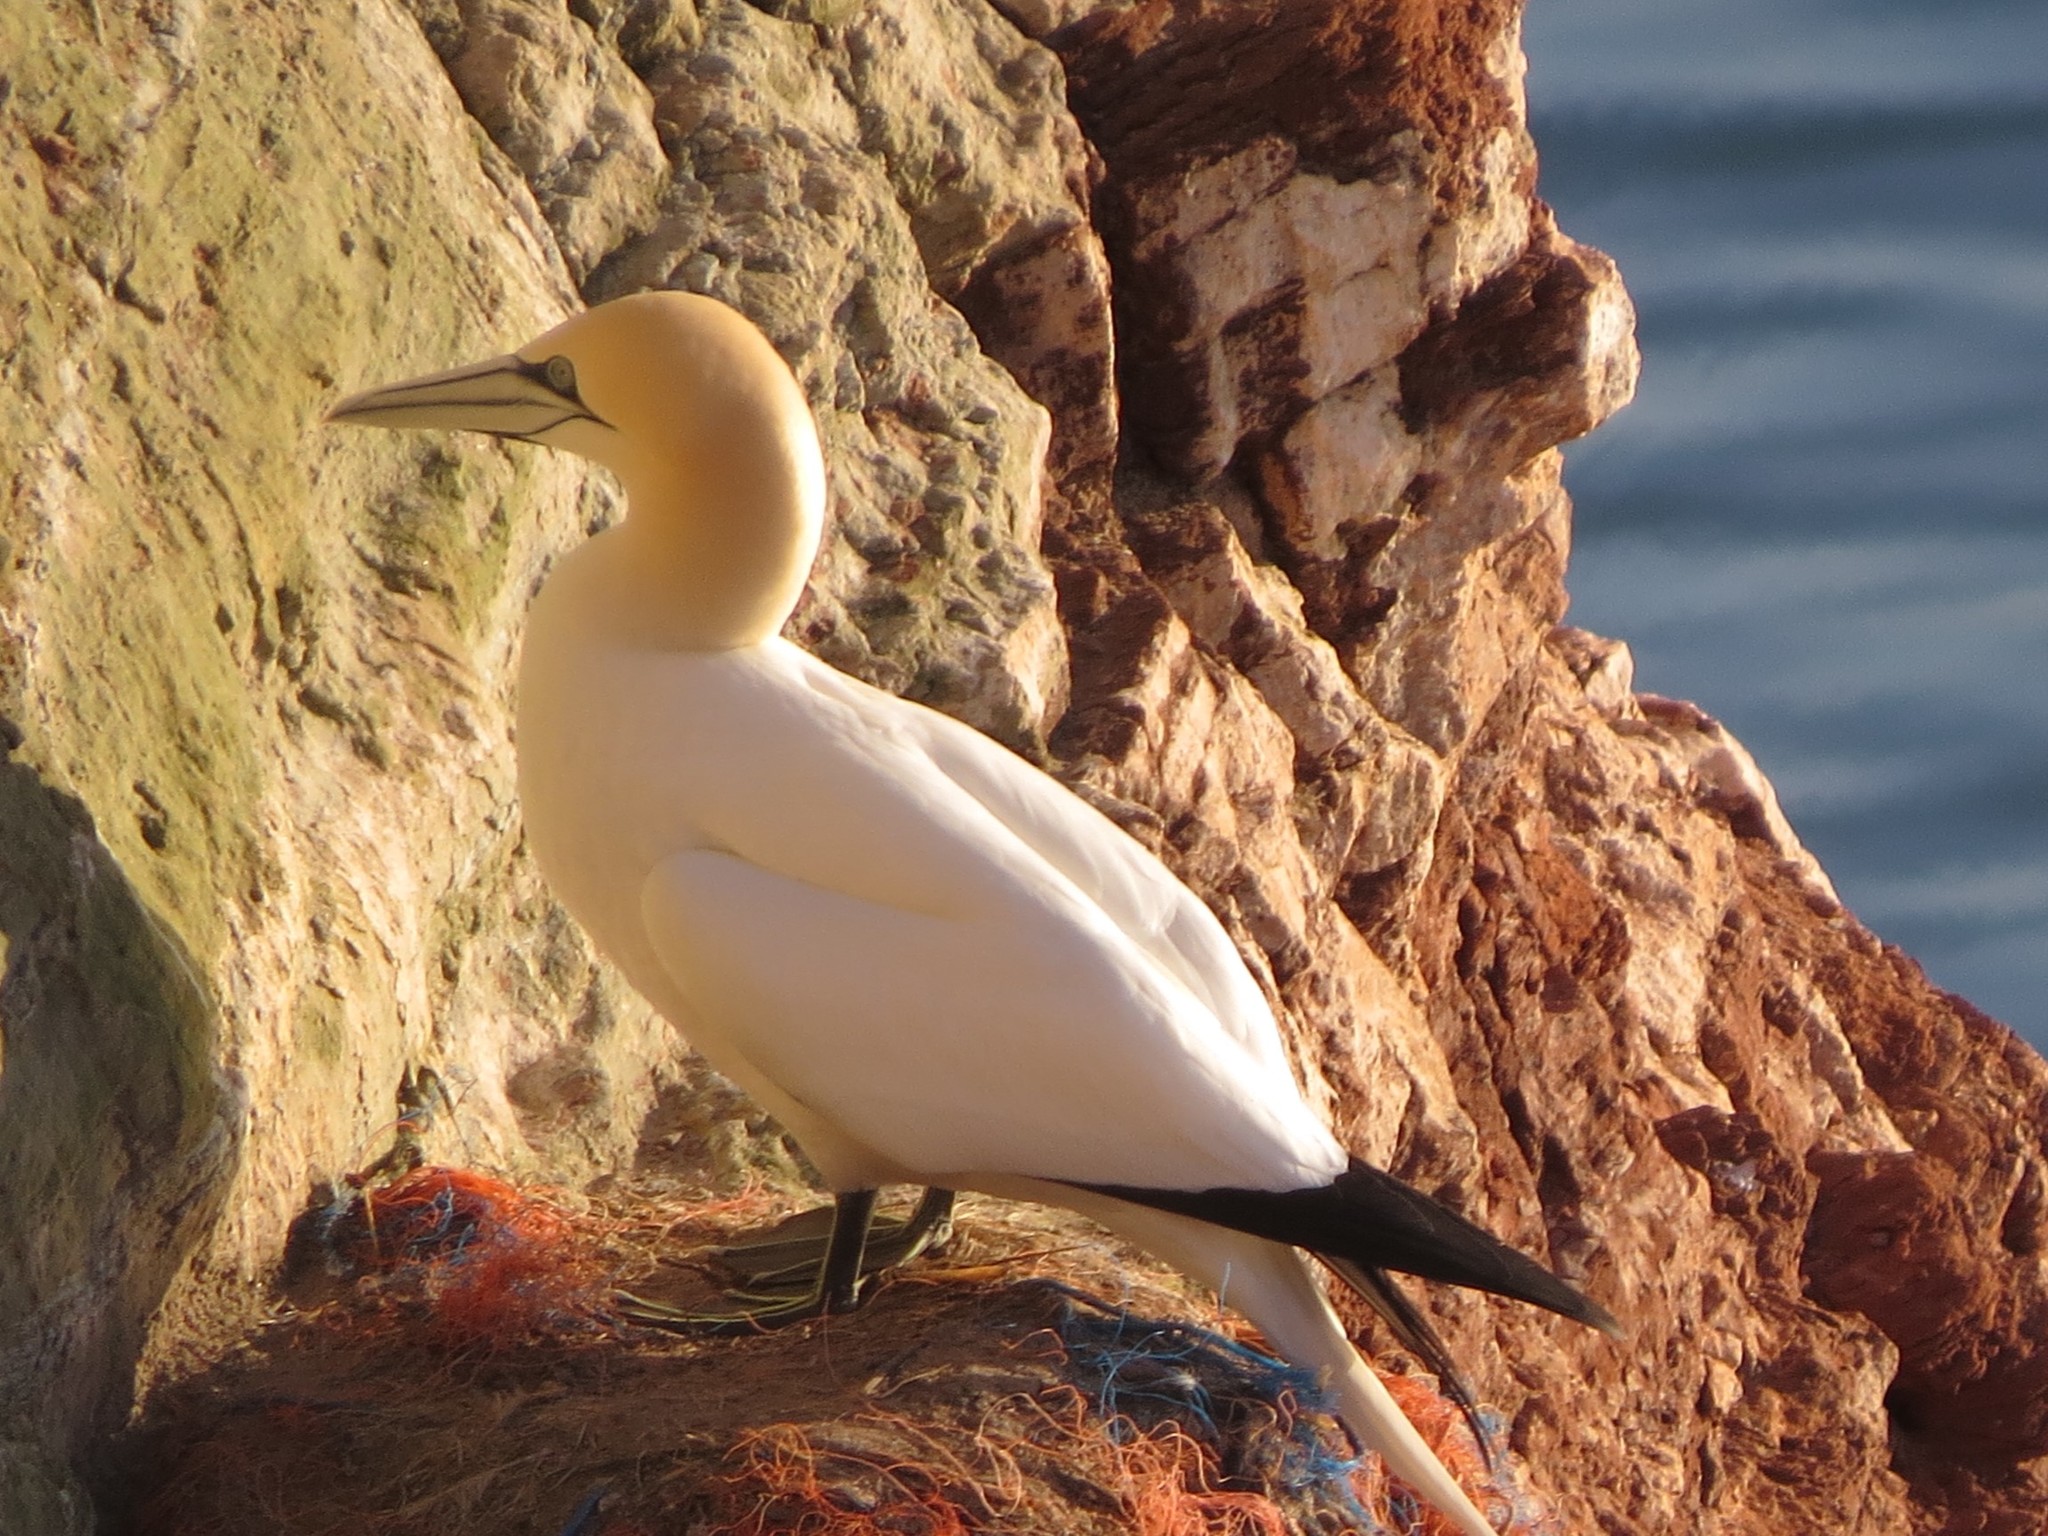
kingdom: Animalia
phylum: Chordata
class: Aves
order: Suliformes
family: Sulidae
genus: Morus
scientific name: Morus bassanus
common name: Northern gannet
